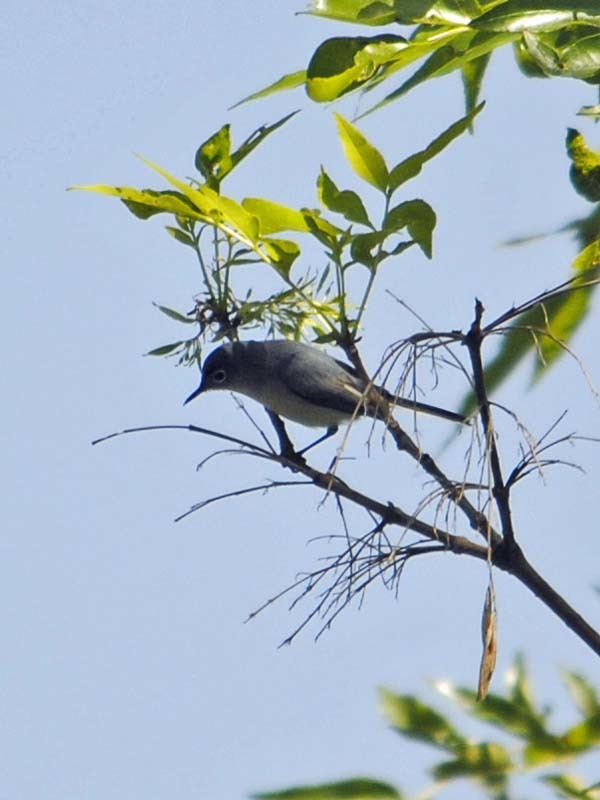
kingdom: Animalia
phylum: Chordata
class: Aves
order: Passeriformes
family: Polioptilidae
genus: Polioptila
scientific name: Polioptila caerulea
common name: Blue-gray gnatcatcher
